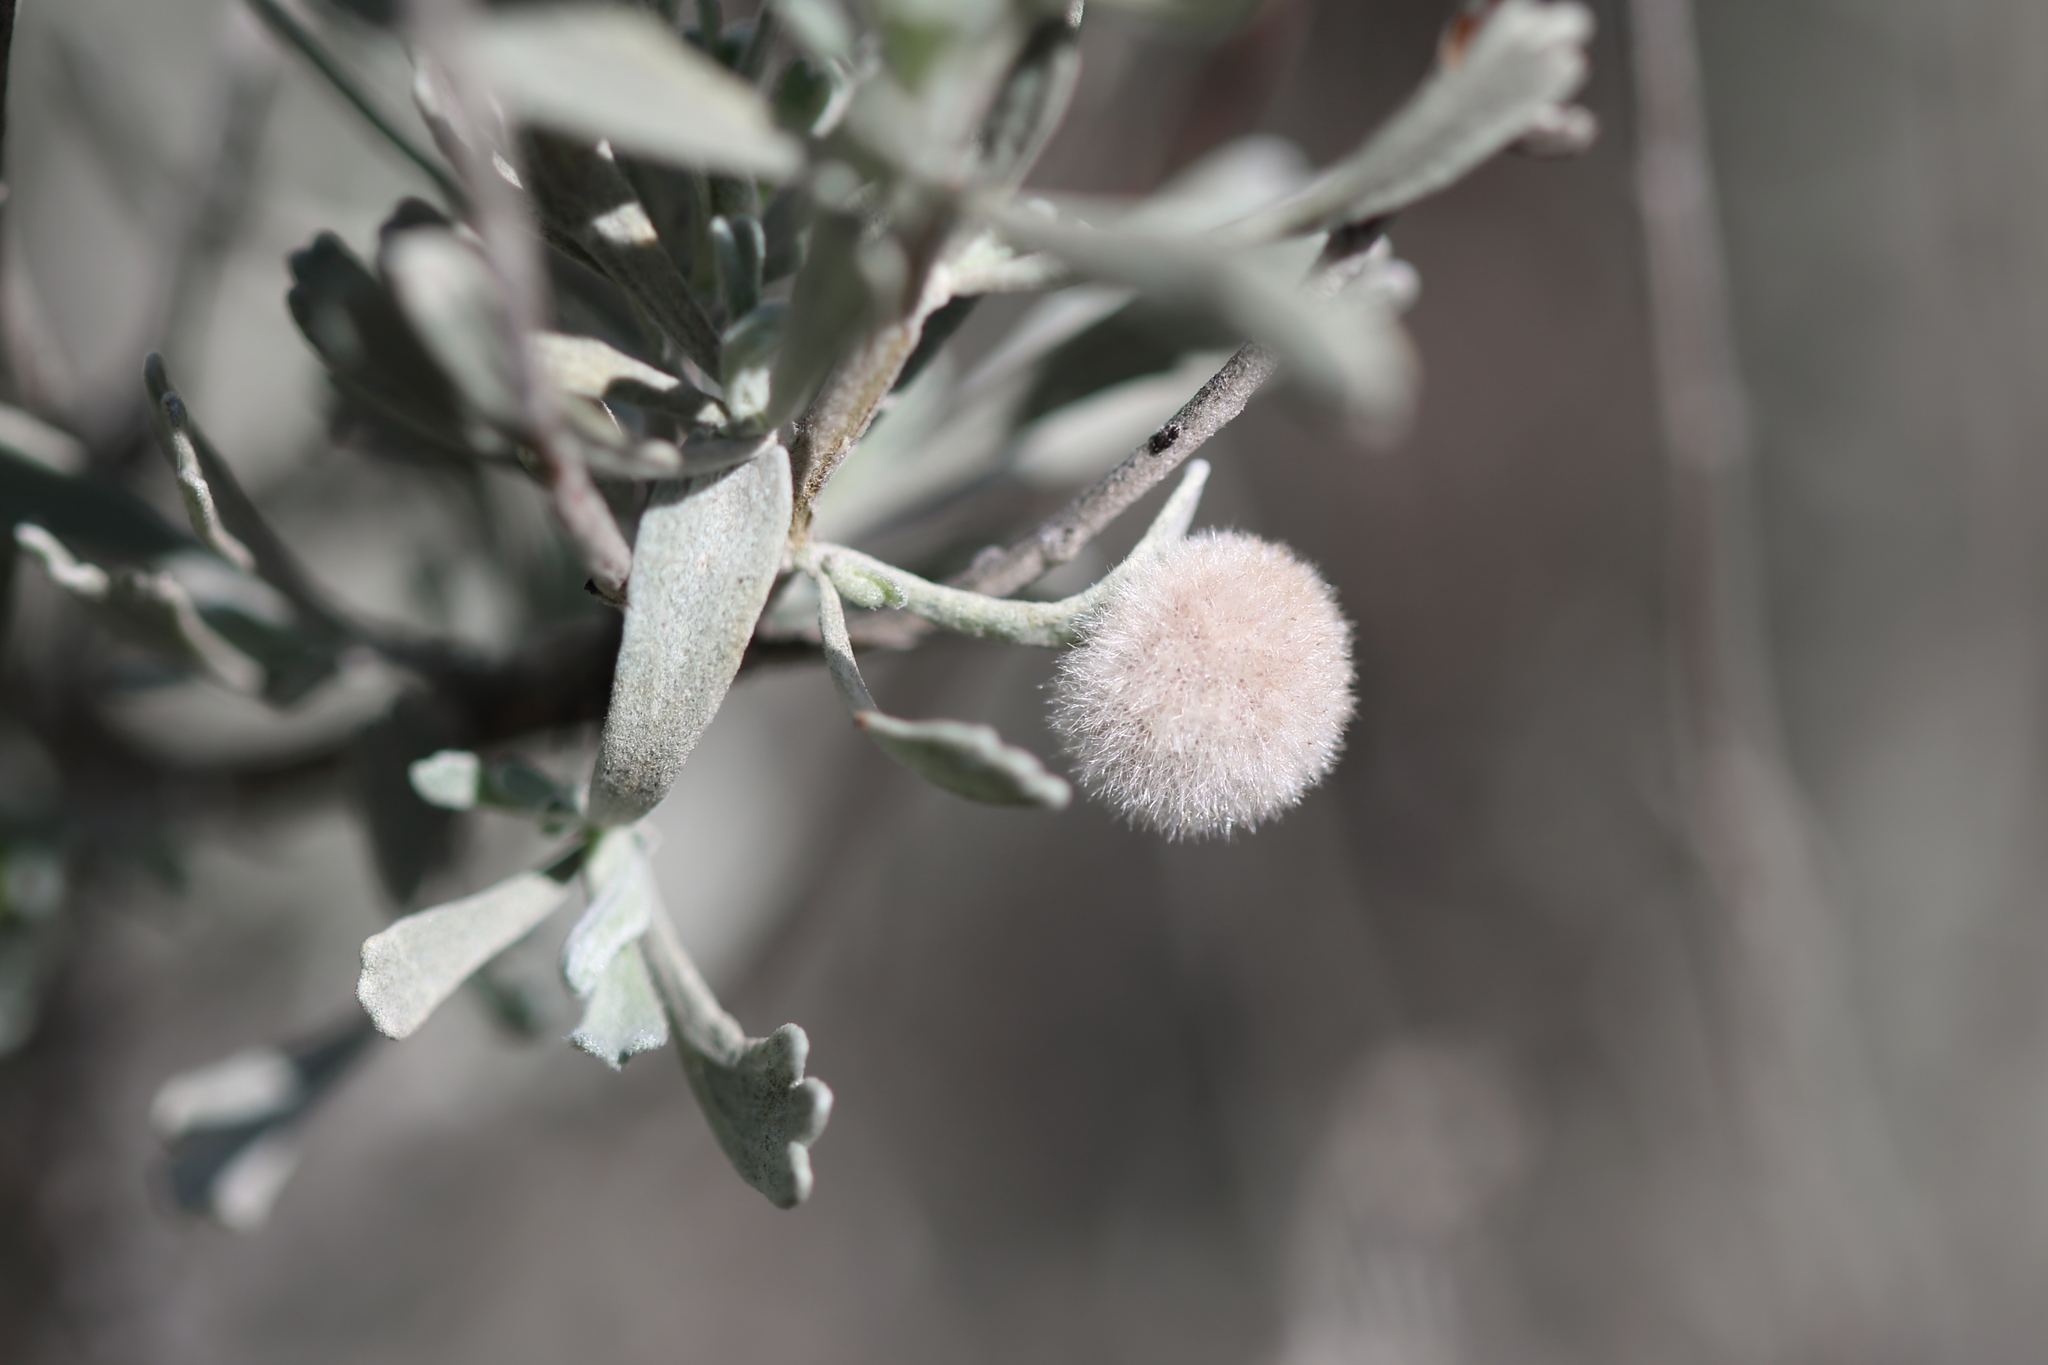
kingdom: Animalia
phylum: Arthropoda
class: Insecta
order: Diptera
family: Cecidomyiidae
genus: Rhopalomyia
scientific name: Rhopalomyia hirtipomum
